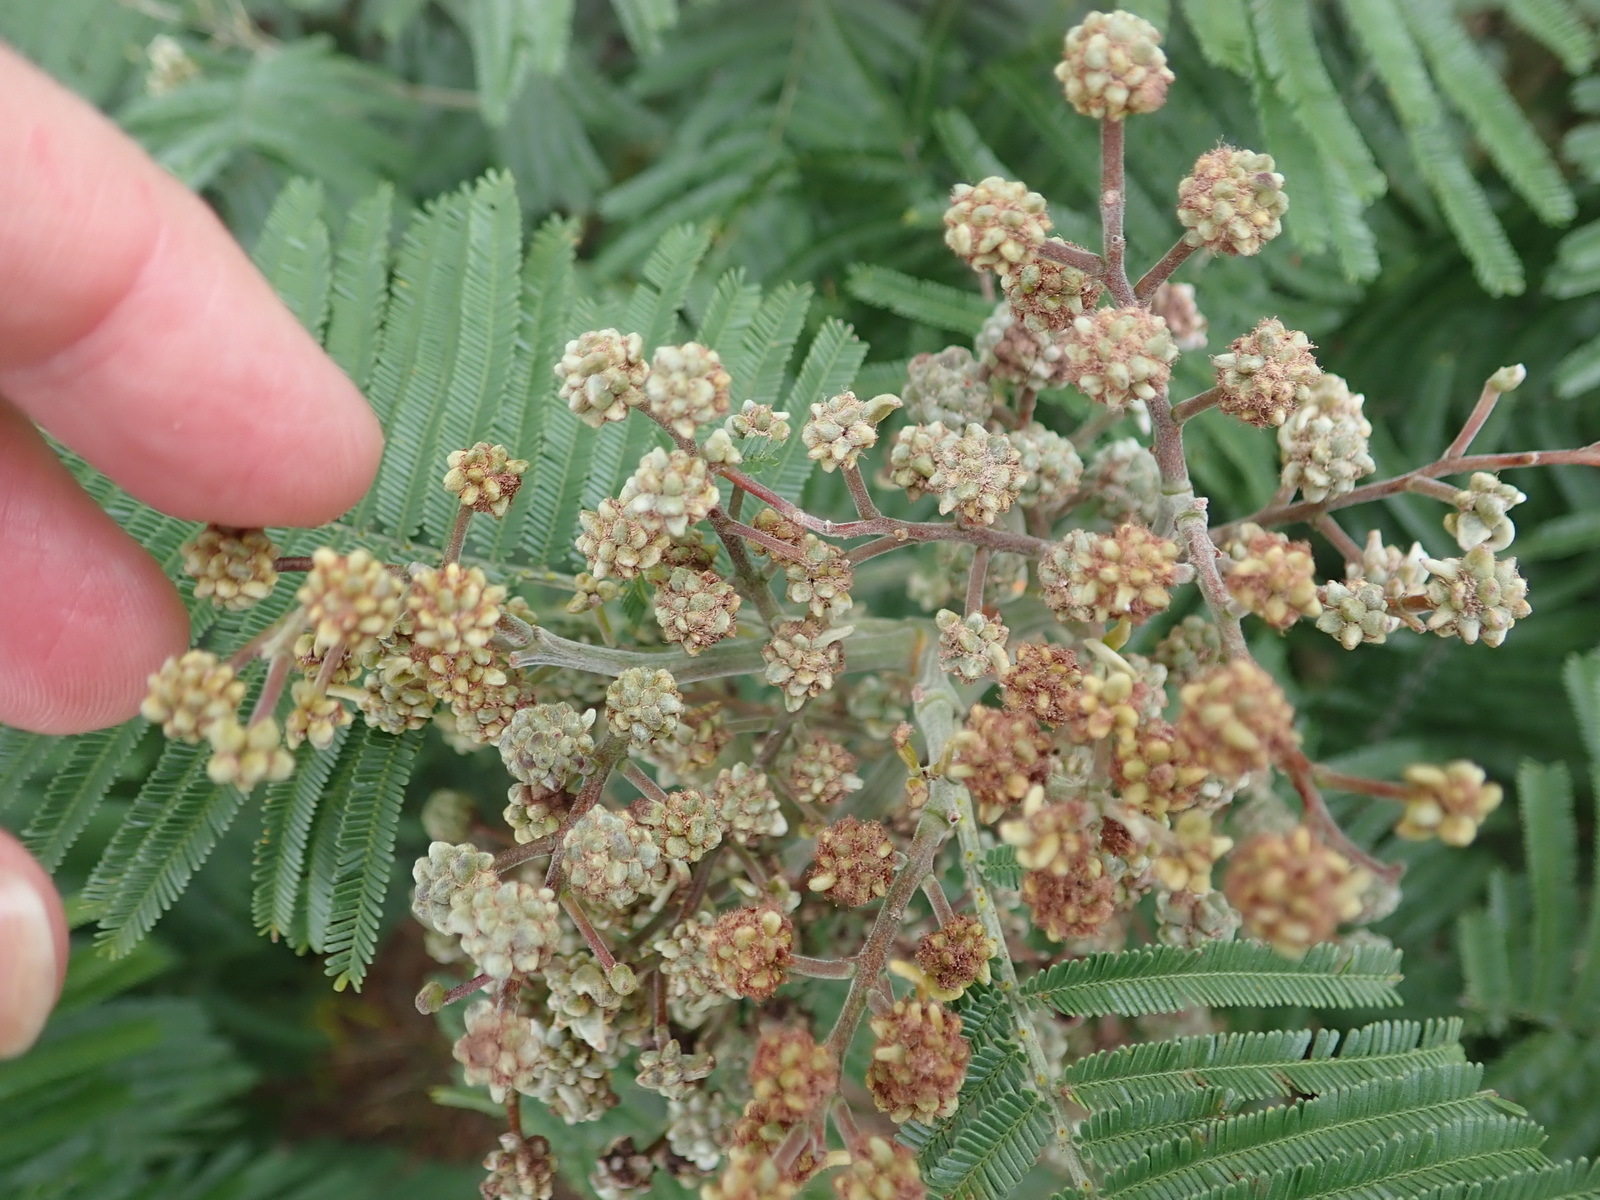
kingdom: Animalia
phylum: Arthropoda
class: Insecta
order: Diptera
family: Cecidomyiidae
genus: Dasineura
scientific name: Dasineura rubiformis
